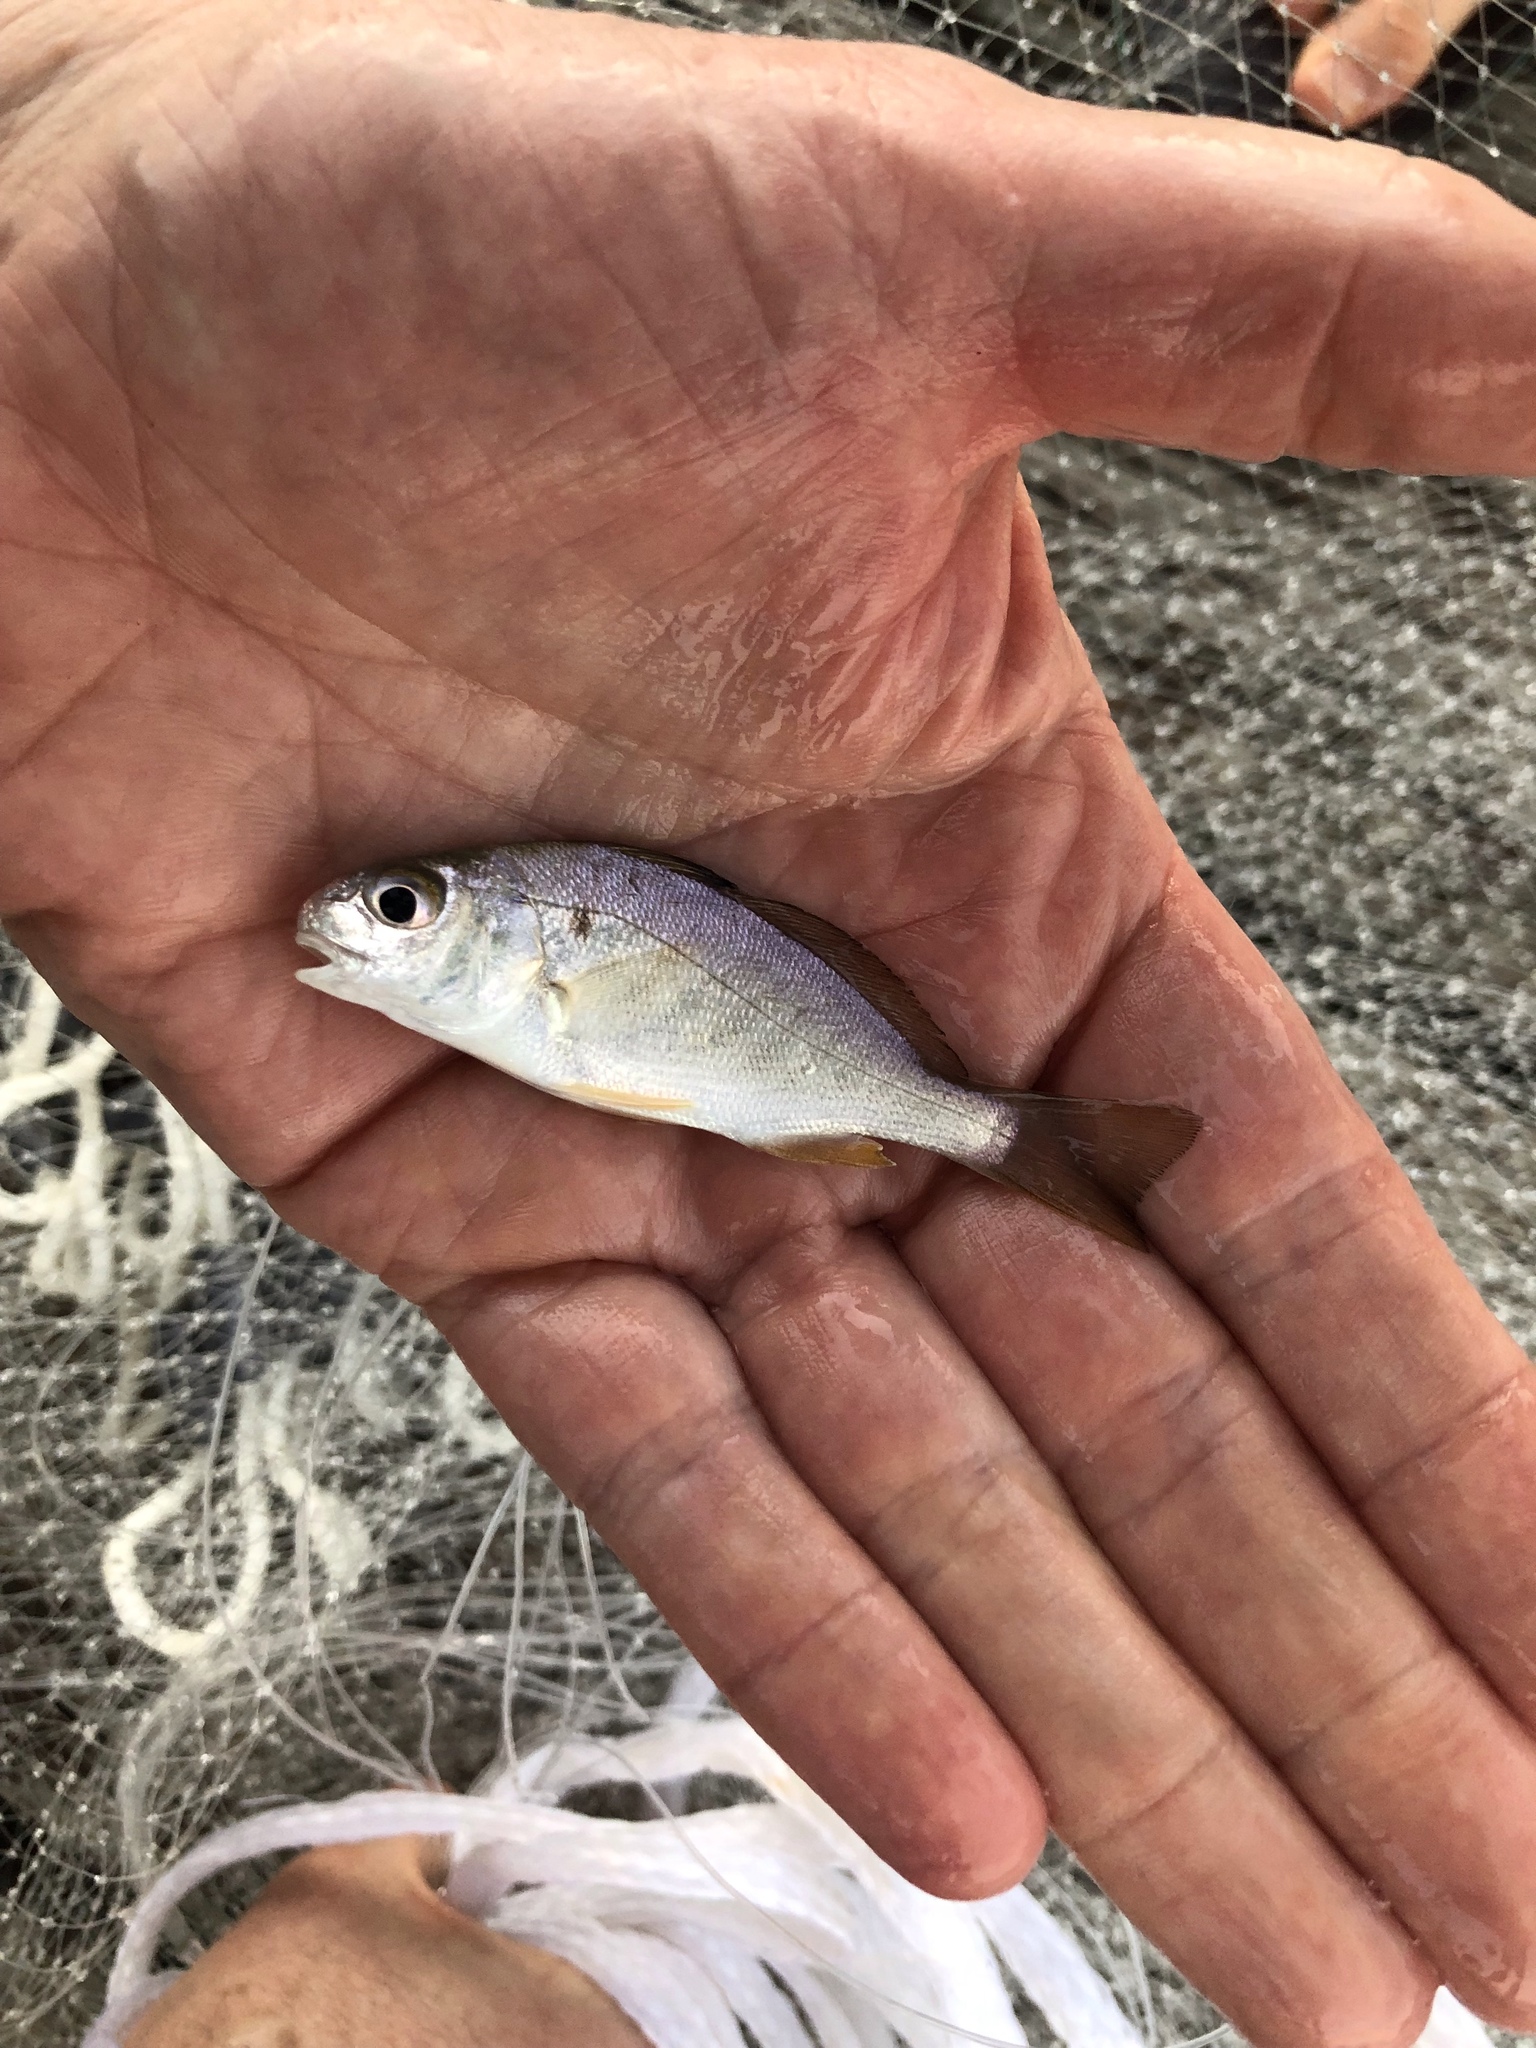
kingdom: Animalia
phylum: Chordata
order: Perciformes
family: Sciaenidae
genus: Leiostomus
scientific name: Leiostomus xanthurus
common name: Spot
